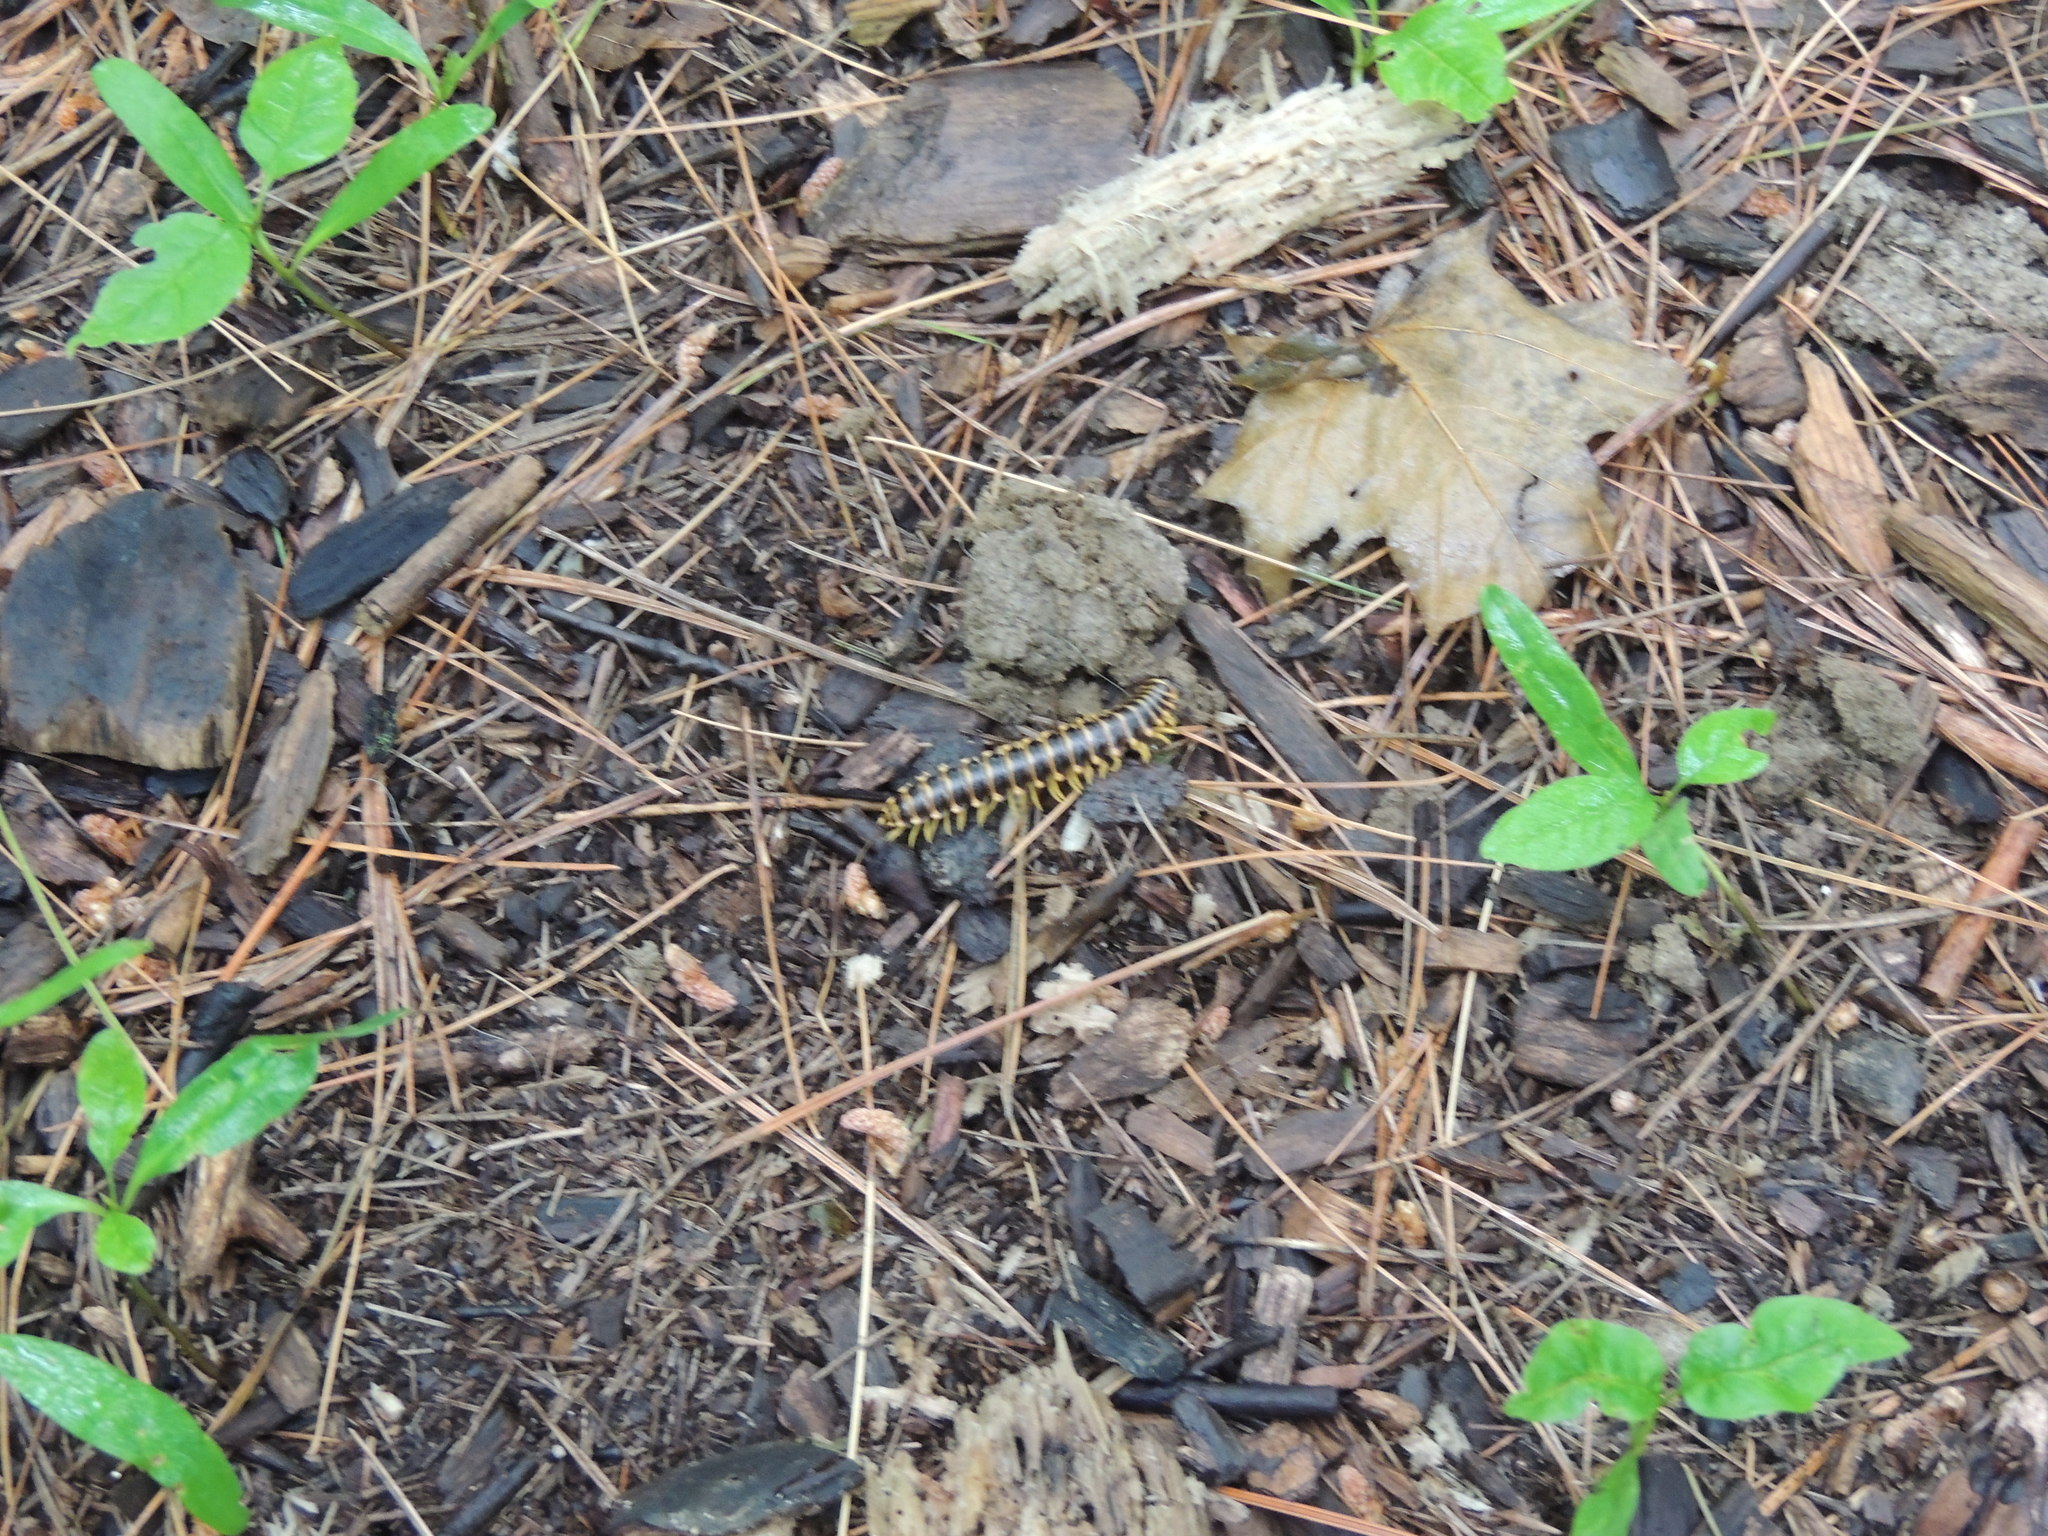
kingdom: Animalia
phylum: Arthropoda
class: Diplopoda
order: Polydesmida
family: Xystodesmidae
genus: Rudiloria
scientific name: Rudiloria trimaculata
